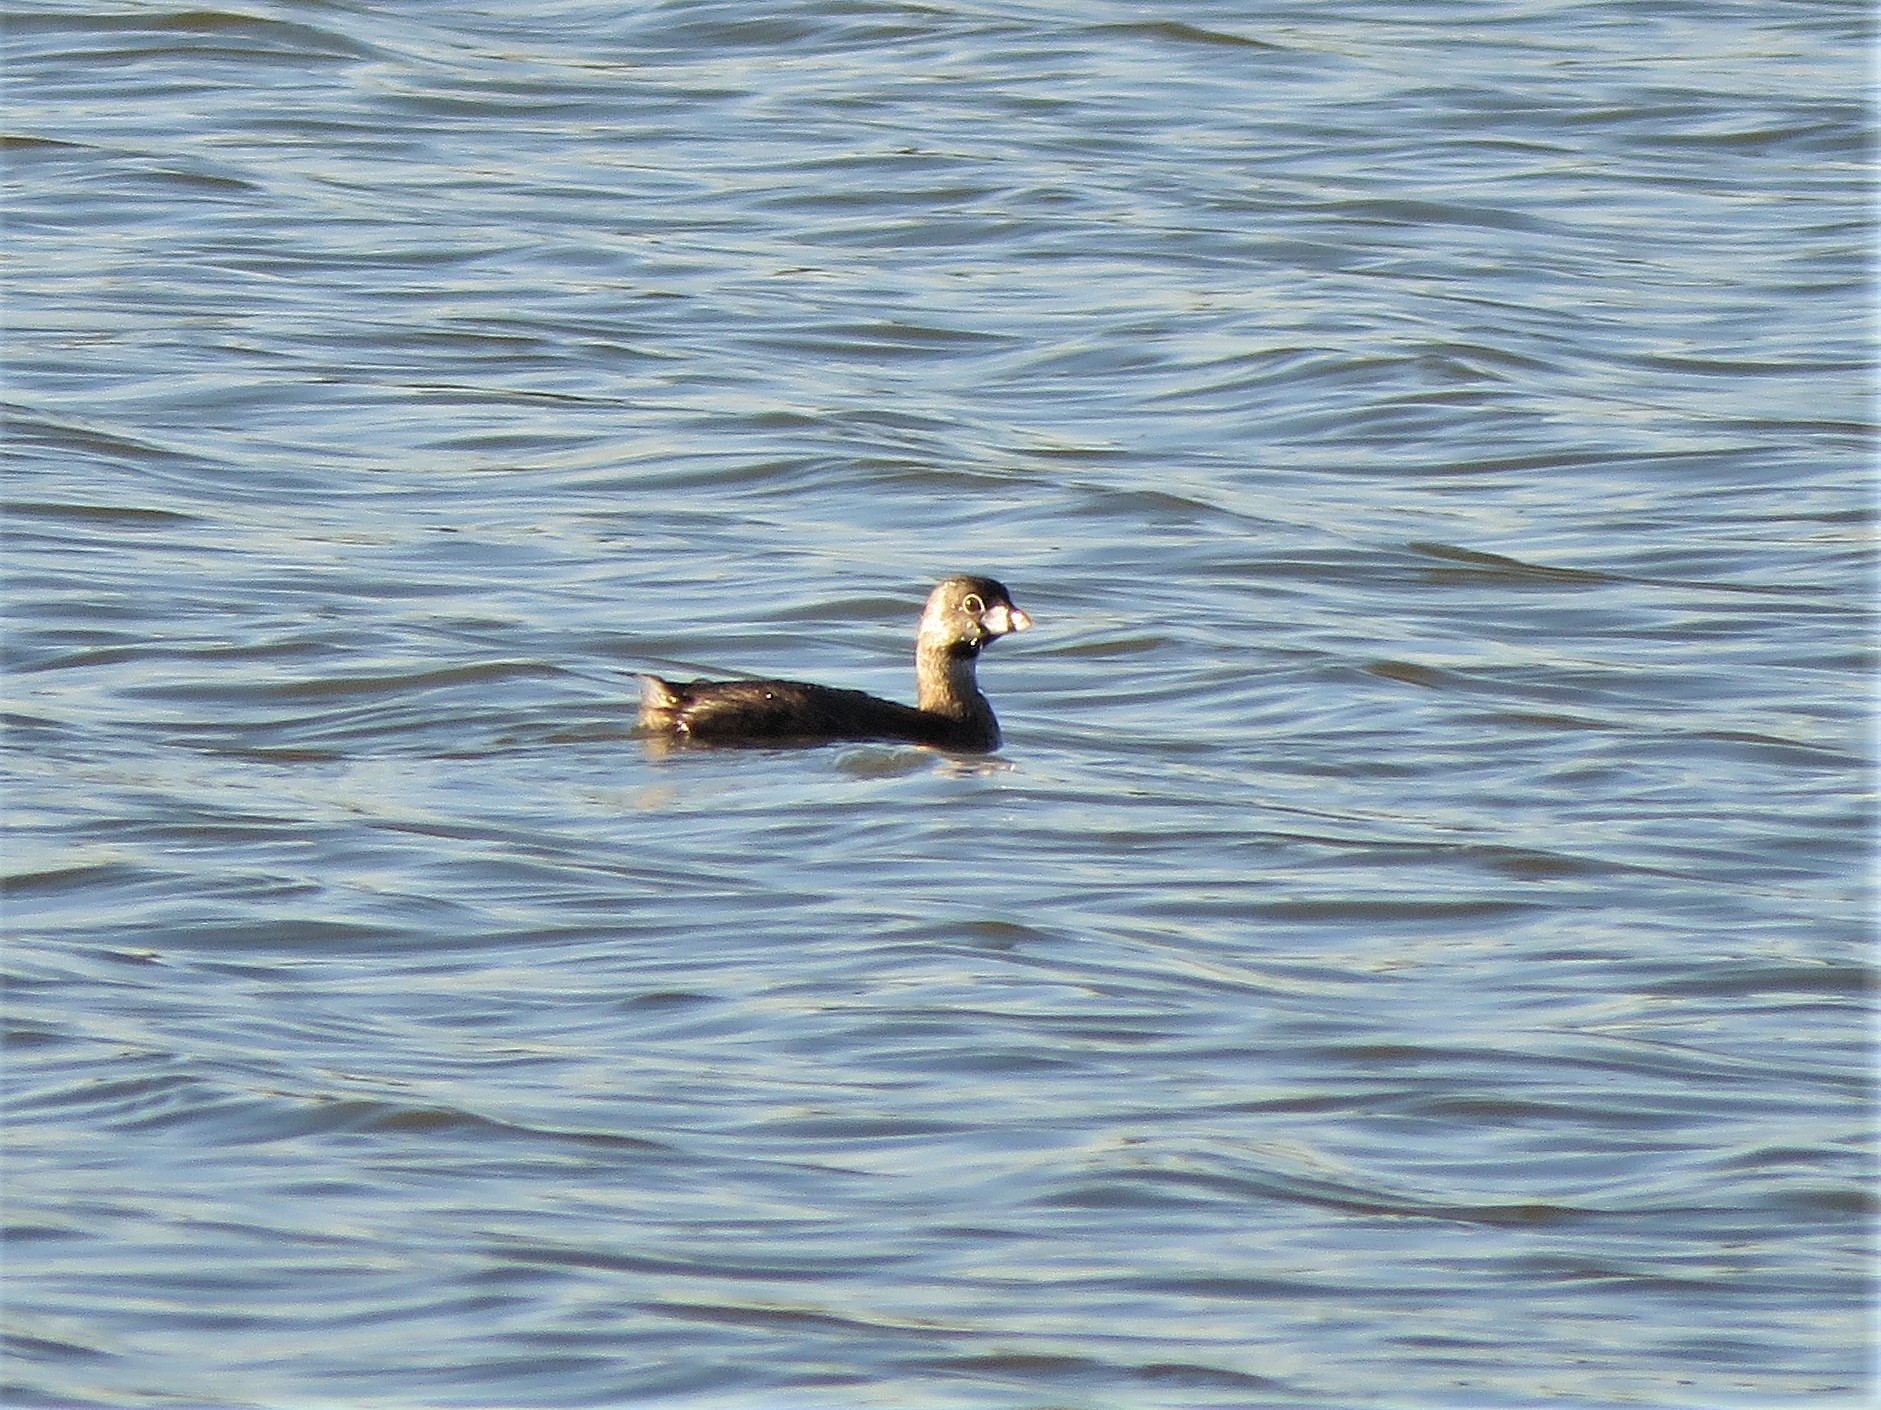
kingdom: Animalia
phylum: Chordata
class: Aves
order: Podicipediformes
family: Podicipedidae
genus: Podilymbus
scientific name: Podilymbus podiceps
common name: Pied-billed grebe
